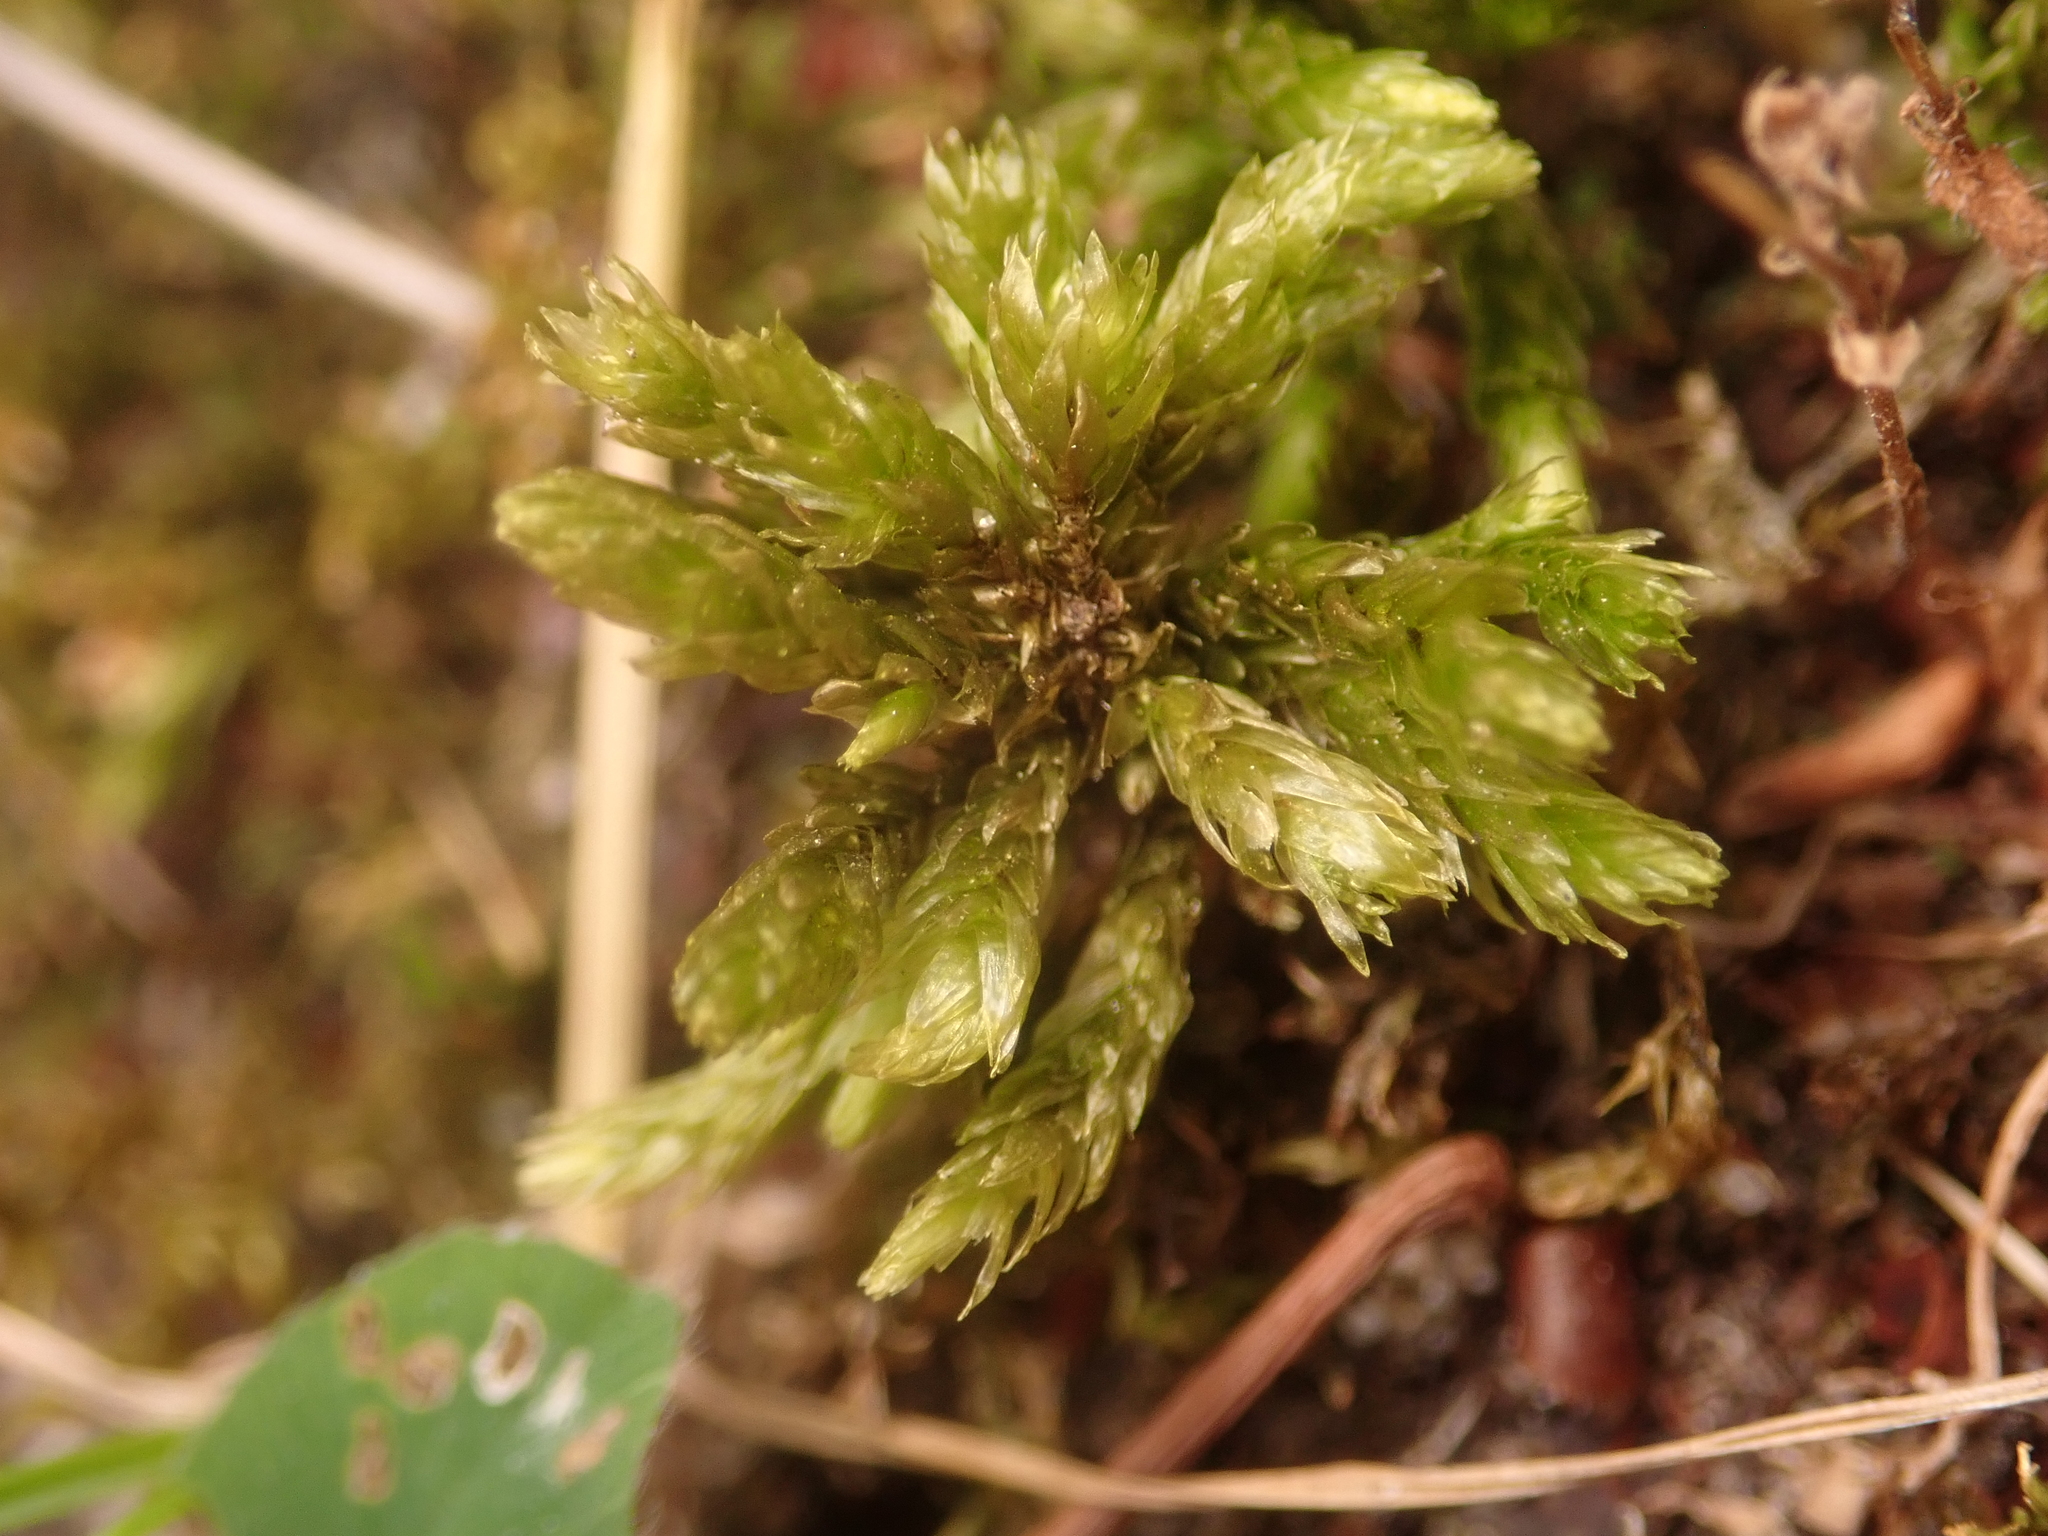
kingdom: Plantae
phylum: Bryophyta
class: Bryopsida
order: Hypnales
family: Climaciaceae
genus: Climacium
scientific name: Climacium dendroides
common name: Northern tree moss
